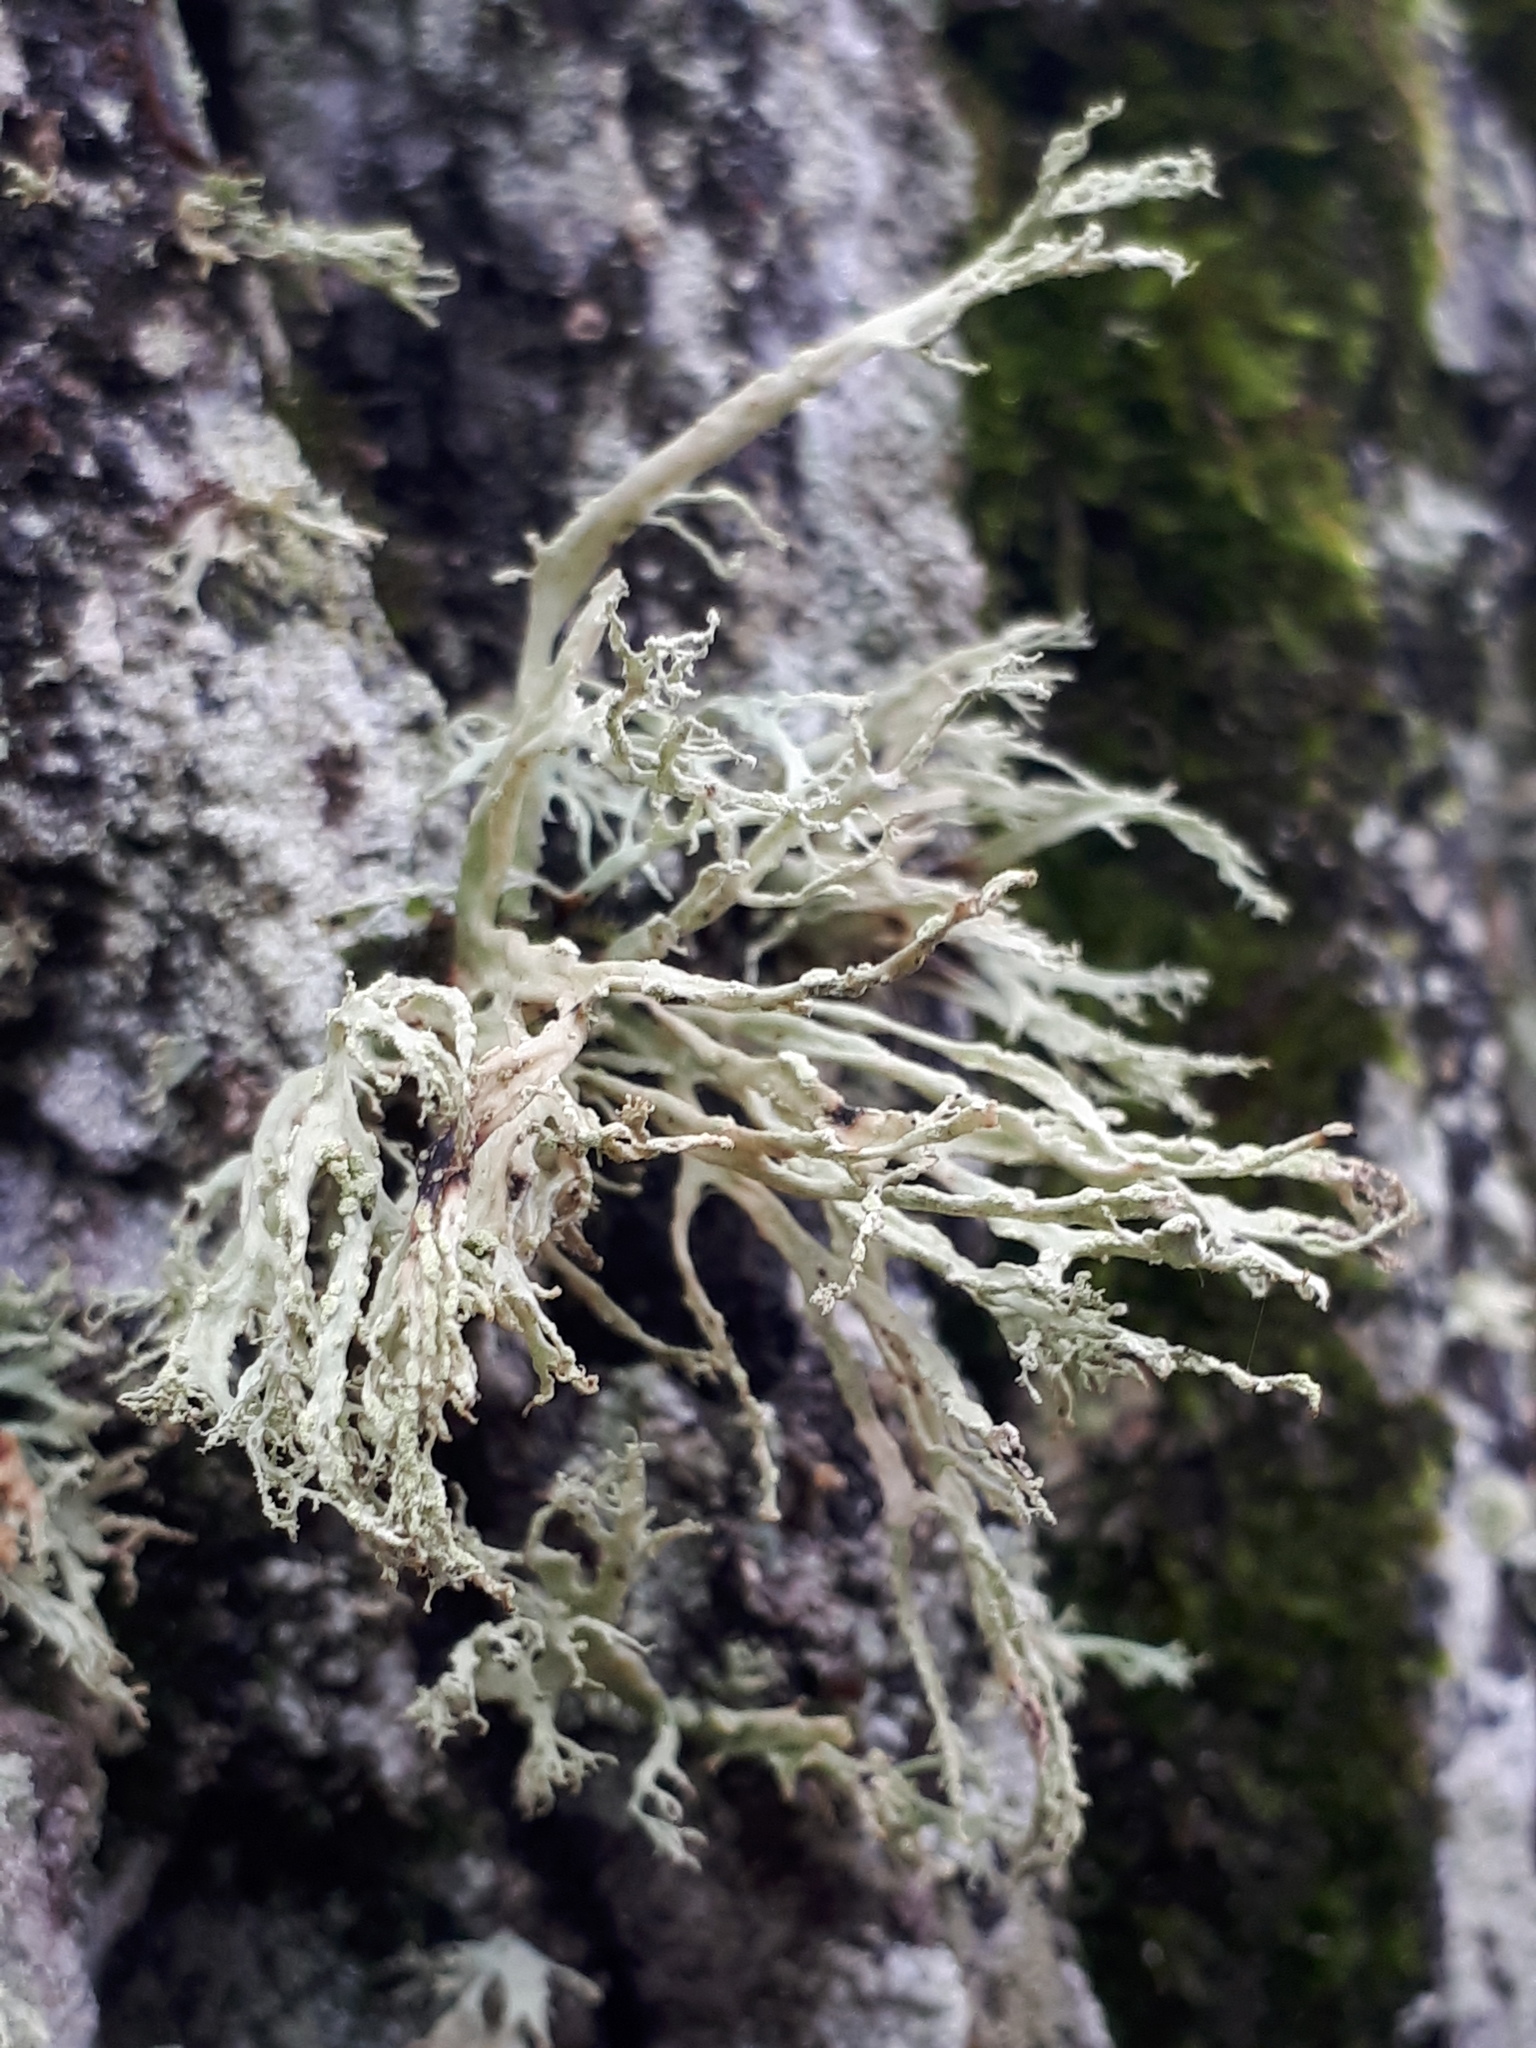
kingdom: Fungi
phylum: Ascomycota
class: Lecanoromycetes
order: Lecanorales
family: Ramalinaceae
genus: Ramalina
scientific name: Ramalina farinacea
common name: Farinose cartilage lichen
